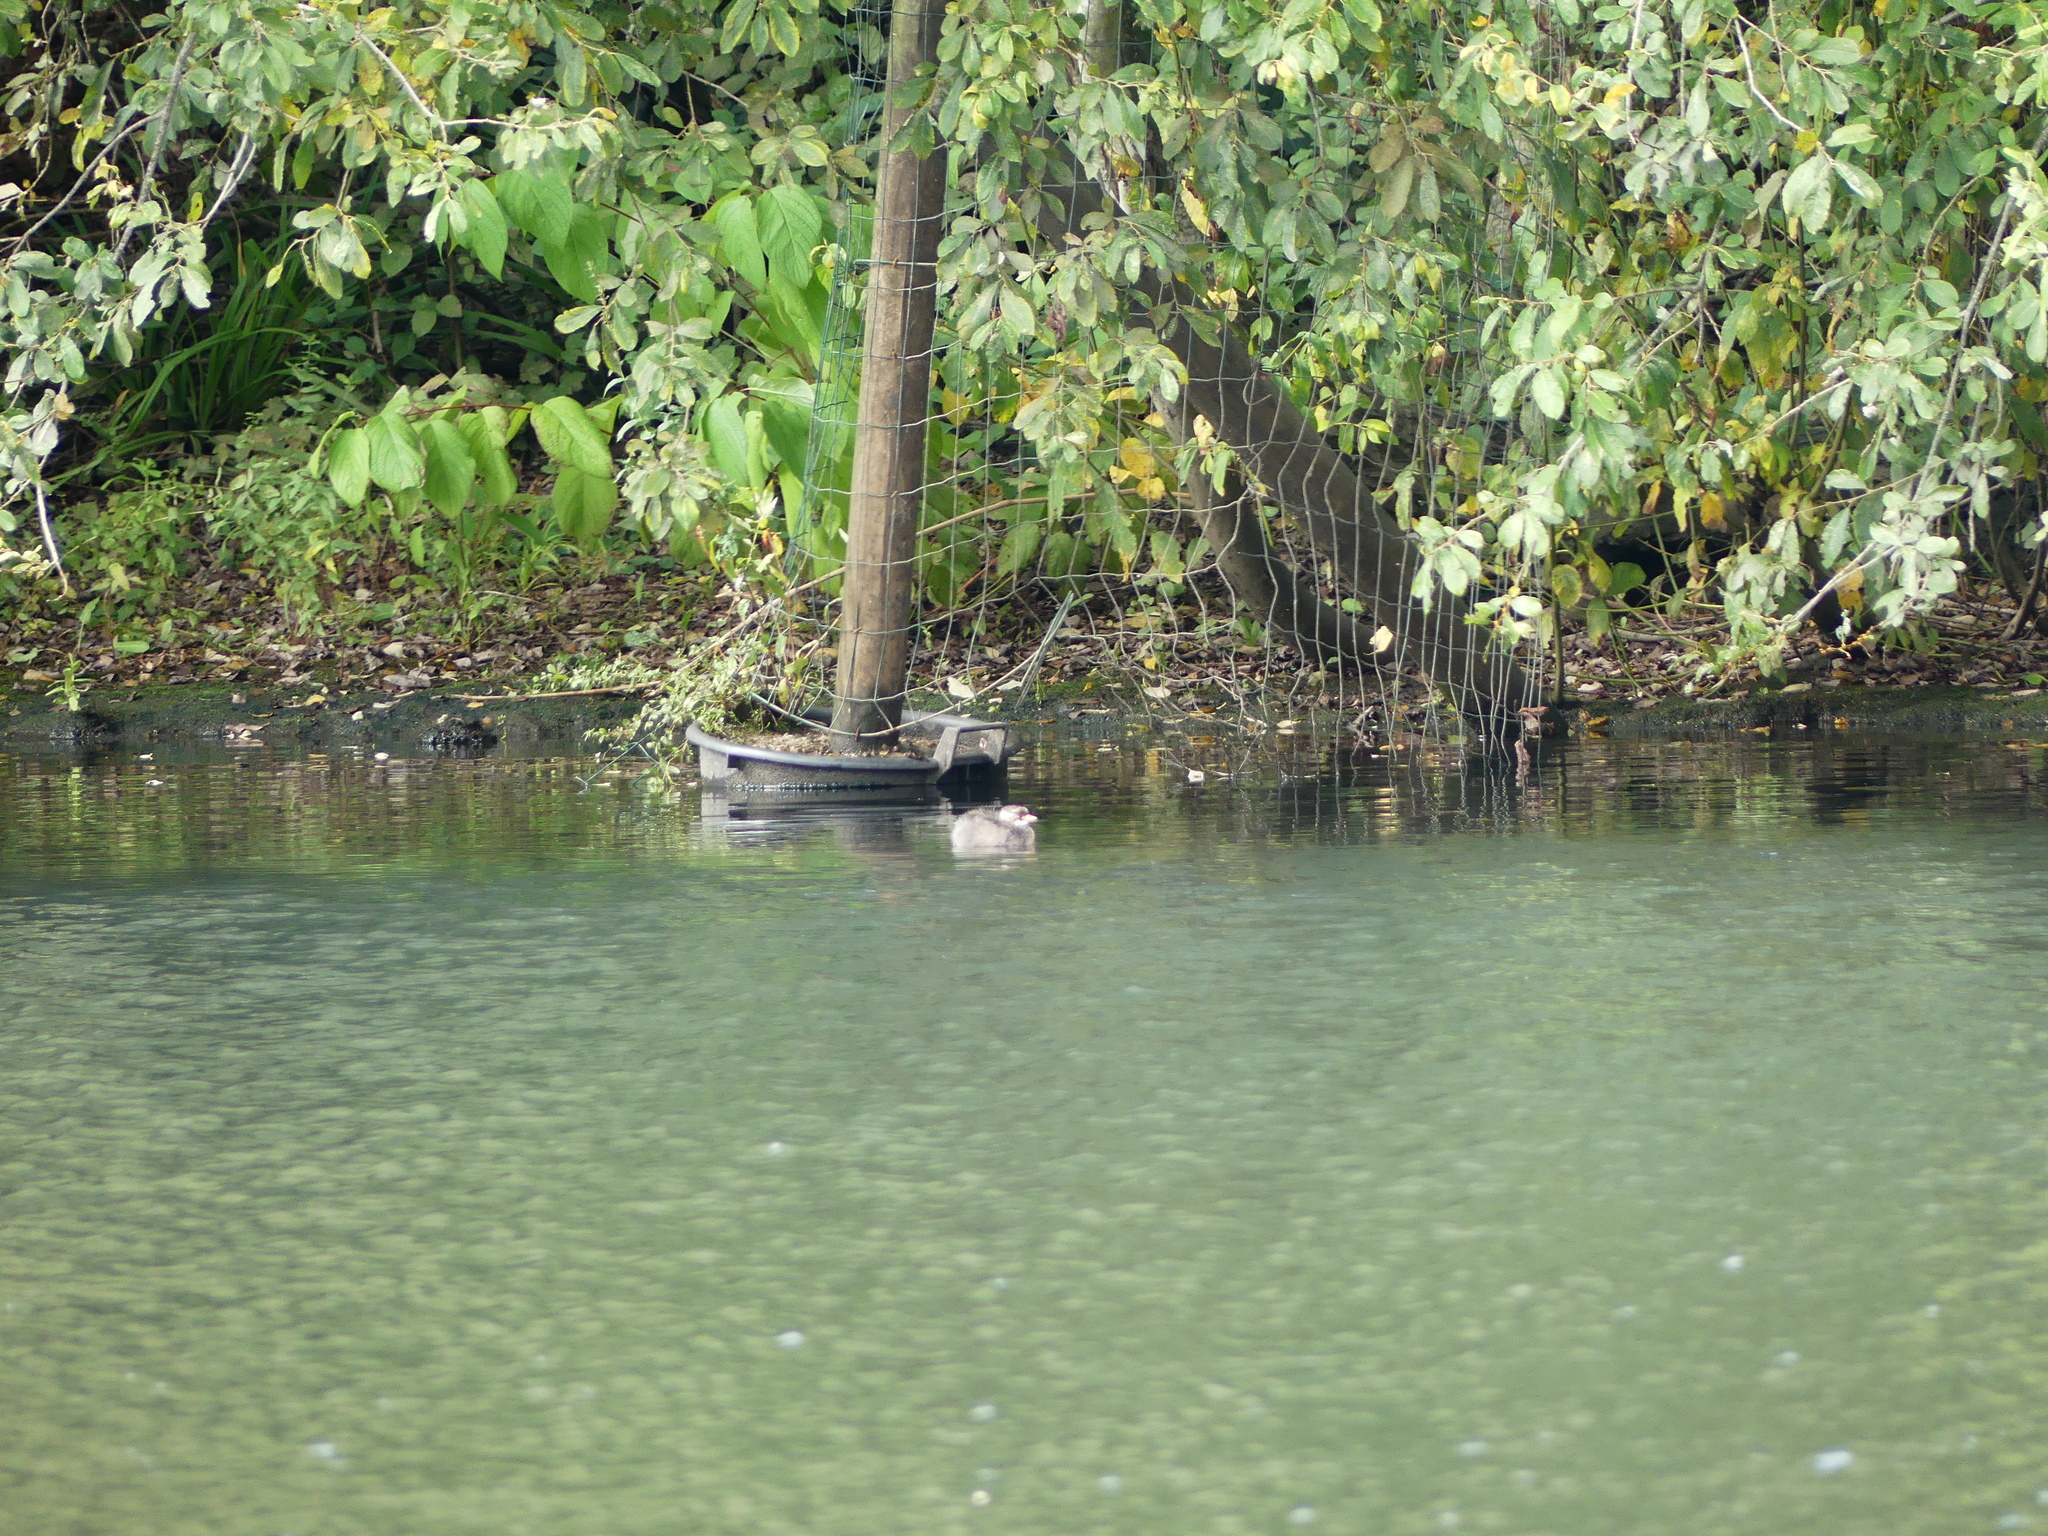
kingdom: Animalia
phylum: Chordata
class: Aves
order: Podicipediformes
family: Podicipedidae
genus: Tachybaptus
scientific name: Tachybaptus ruficollis
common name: Little grebe
